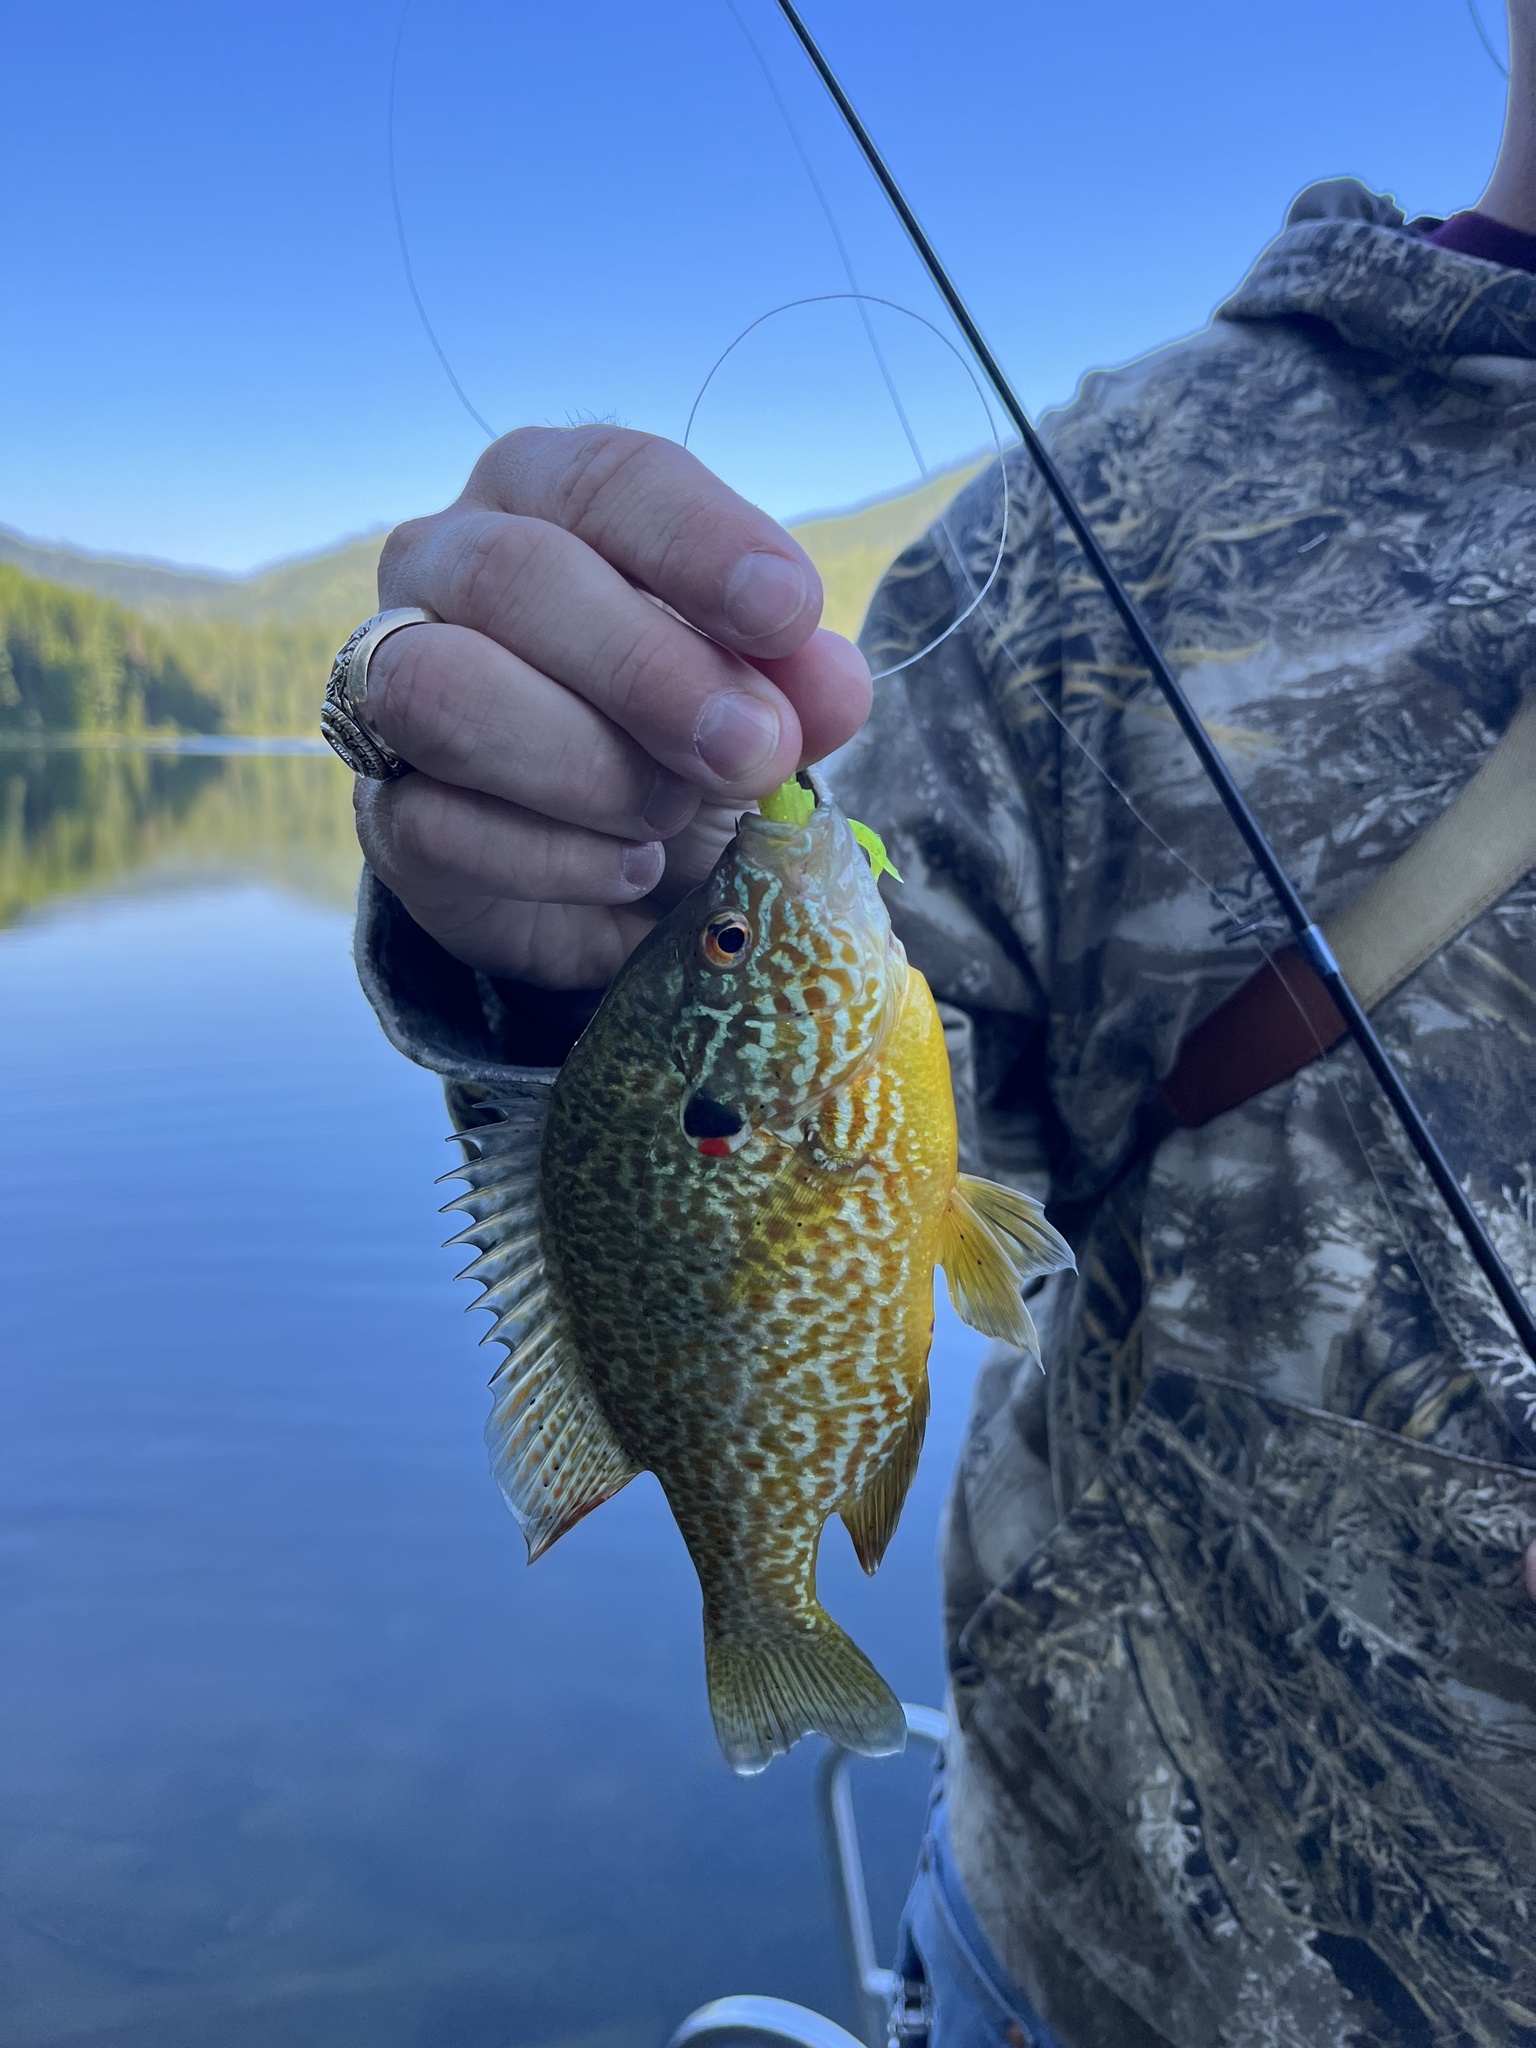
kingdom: Animalia
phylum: Chordata
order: Perciformes
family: Centrarchidae
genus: Lepomis
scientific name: Lepomis gibbosus
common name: Pumpkinseed
